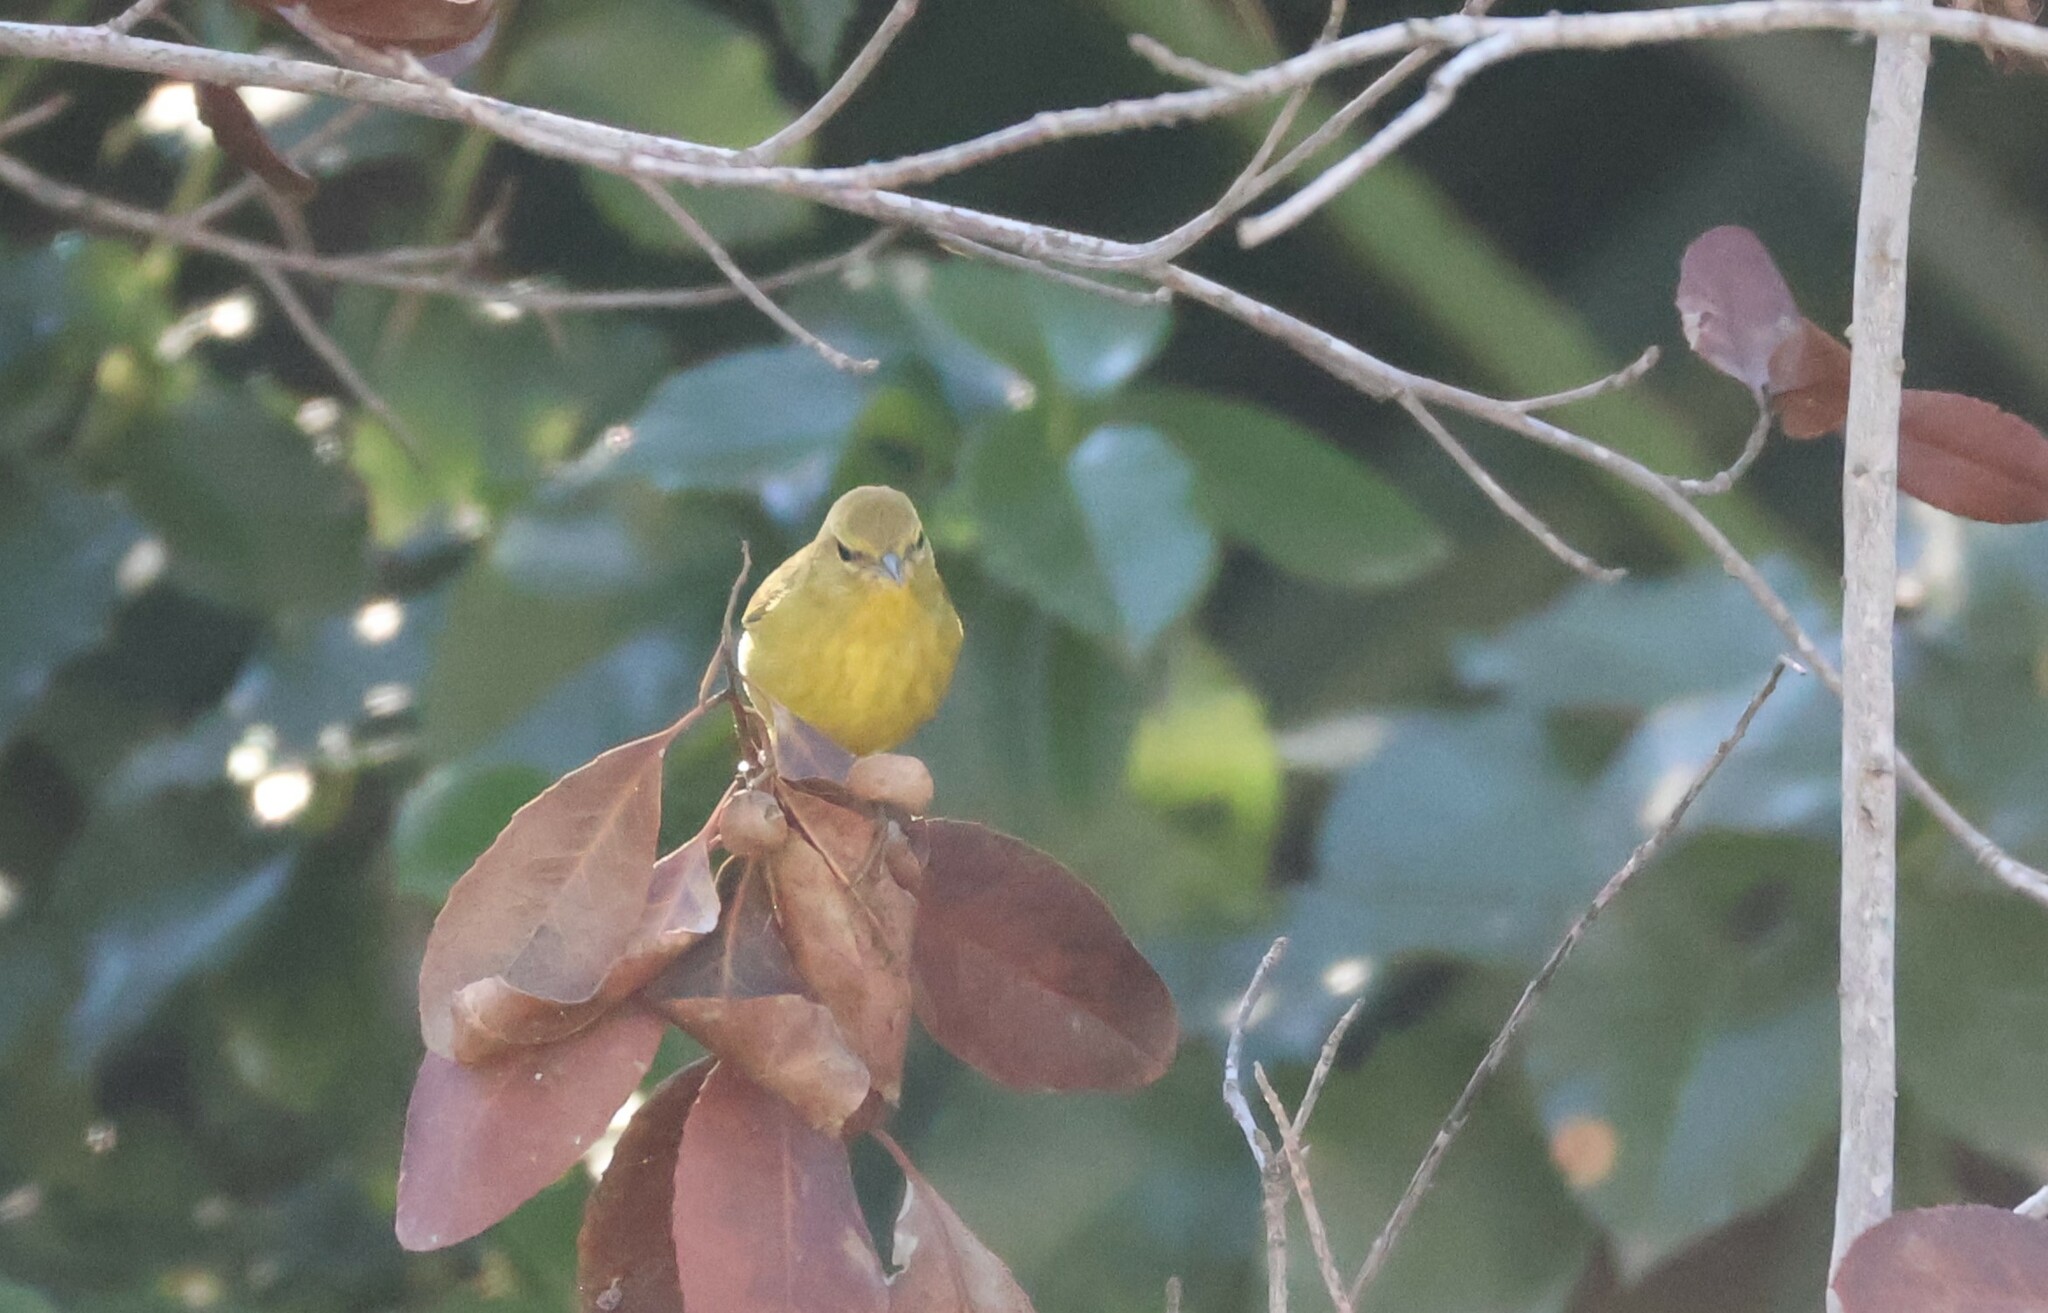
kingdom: Animalia
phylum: Chordata
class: Aves
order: Passeriformes
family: Parulidae
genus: Leiothlypis
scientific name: Leiothlypis celata
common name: Orange-crowned warbler
